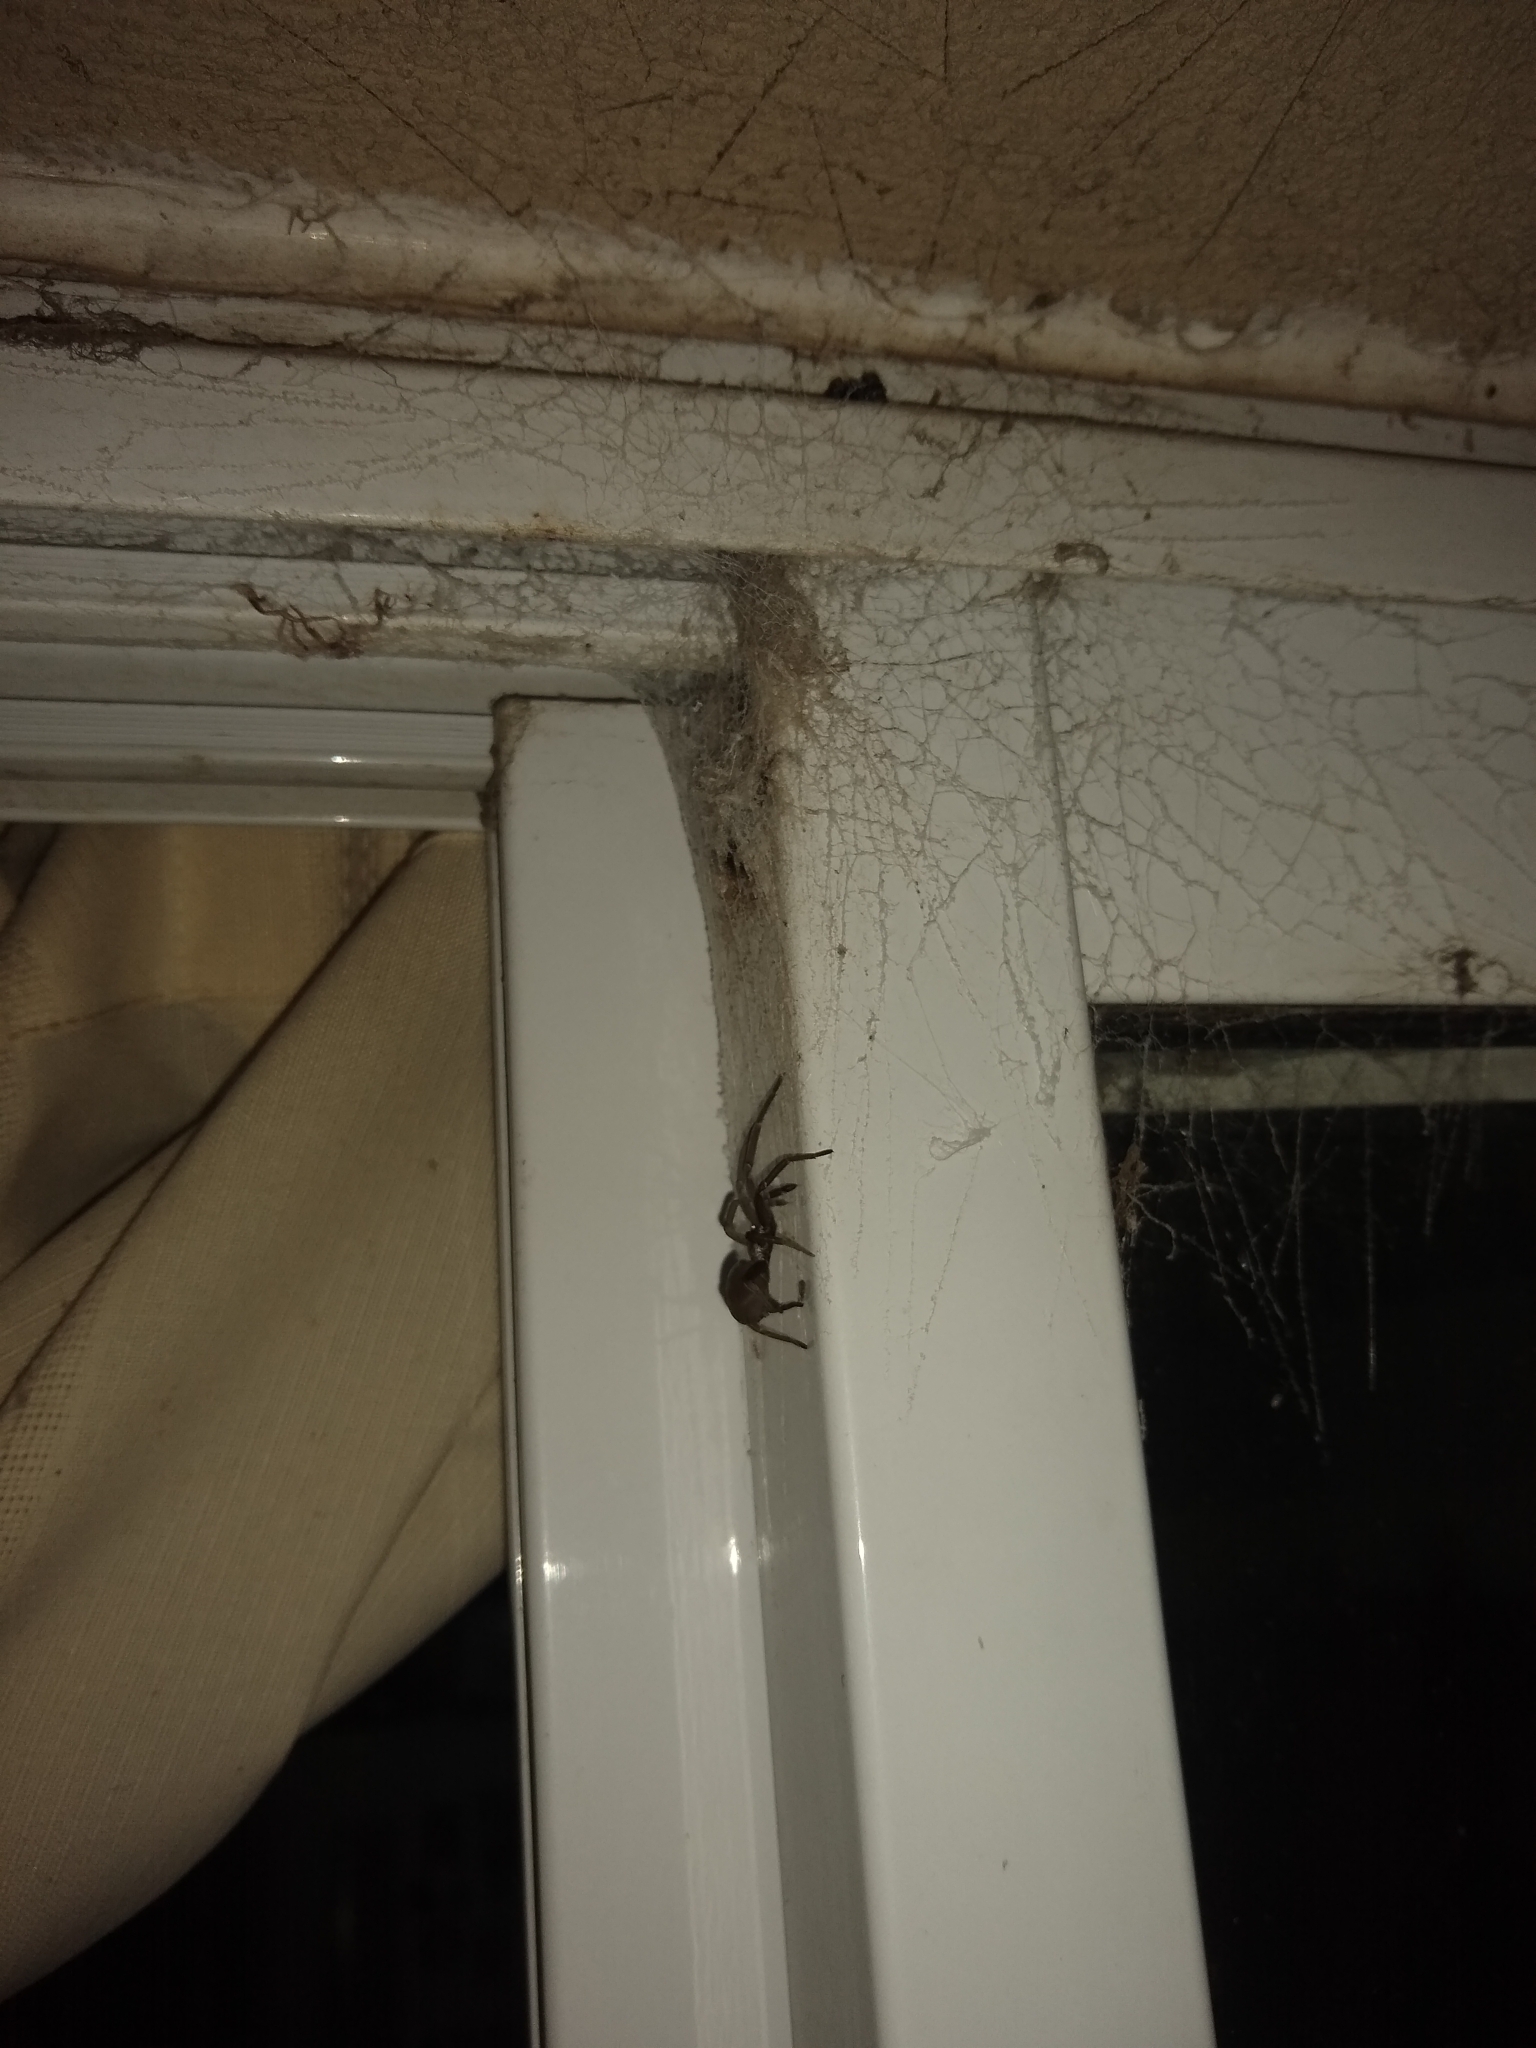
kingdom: Animalia
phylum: Arthropoda
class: Arachnida
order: Araneae
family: Filistatidae
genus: Kukulcania
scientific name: Kukulcania hibernalis
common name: Crevice weaver
